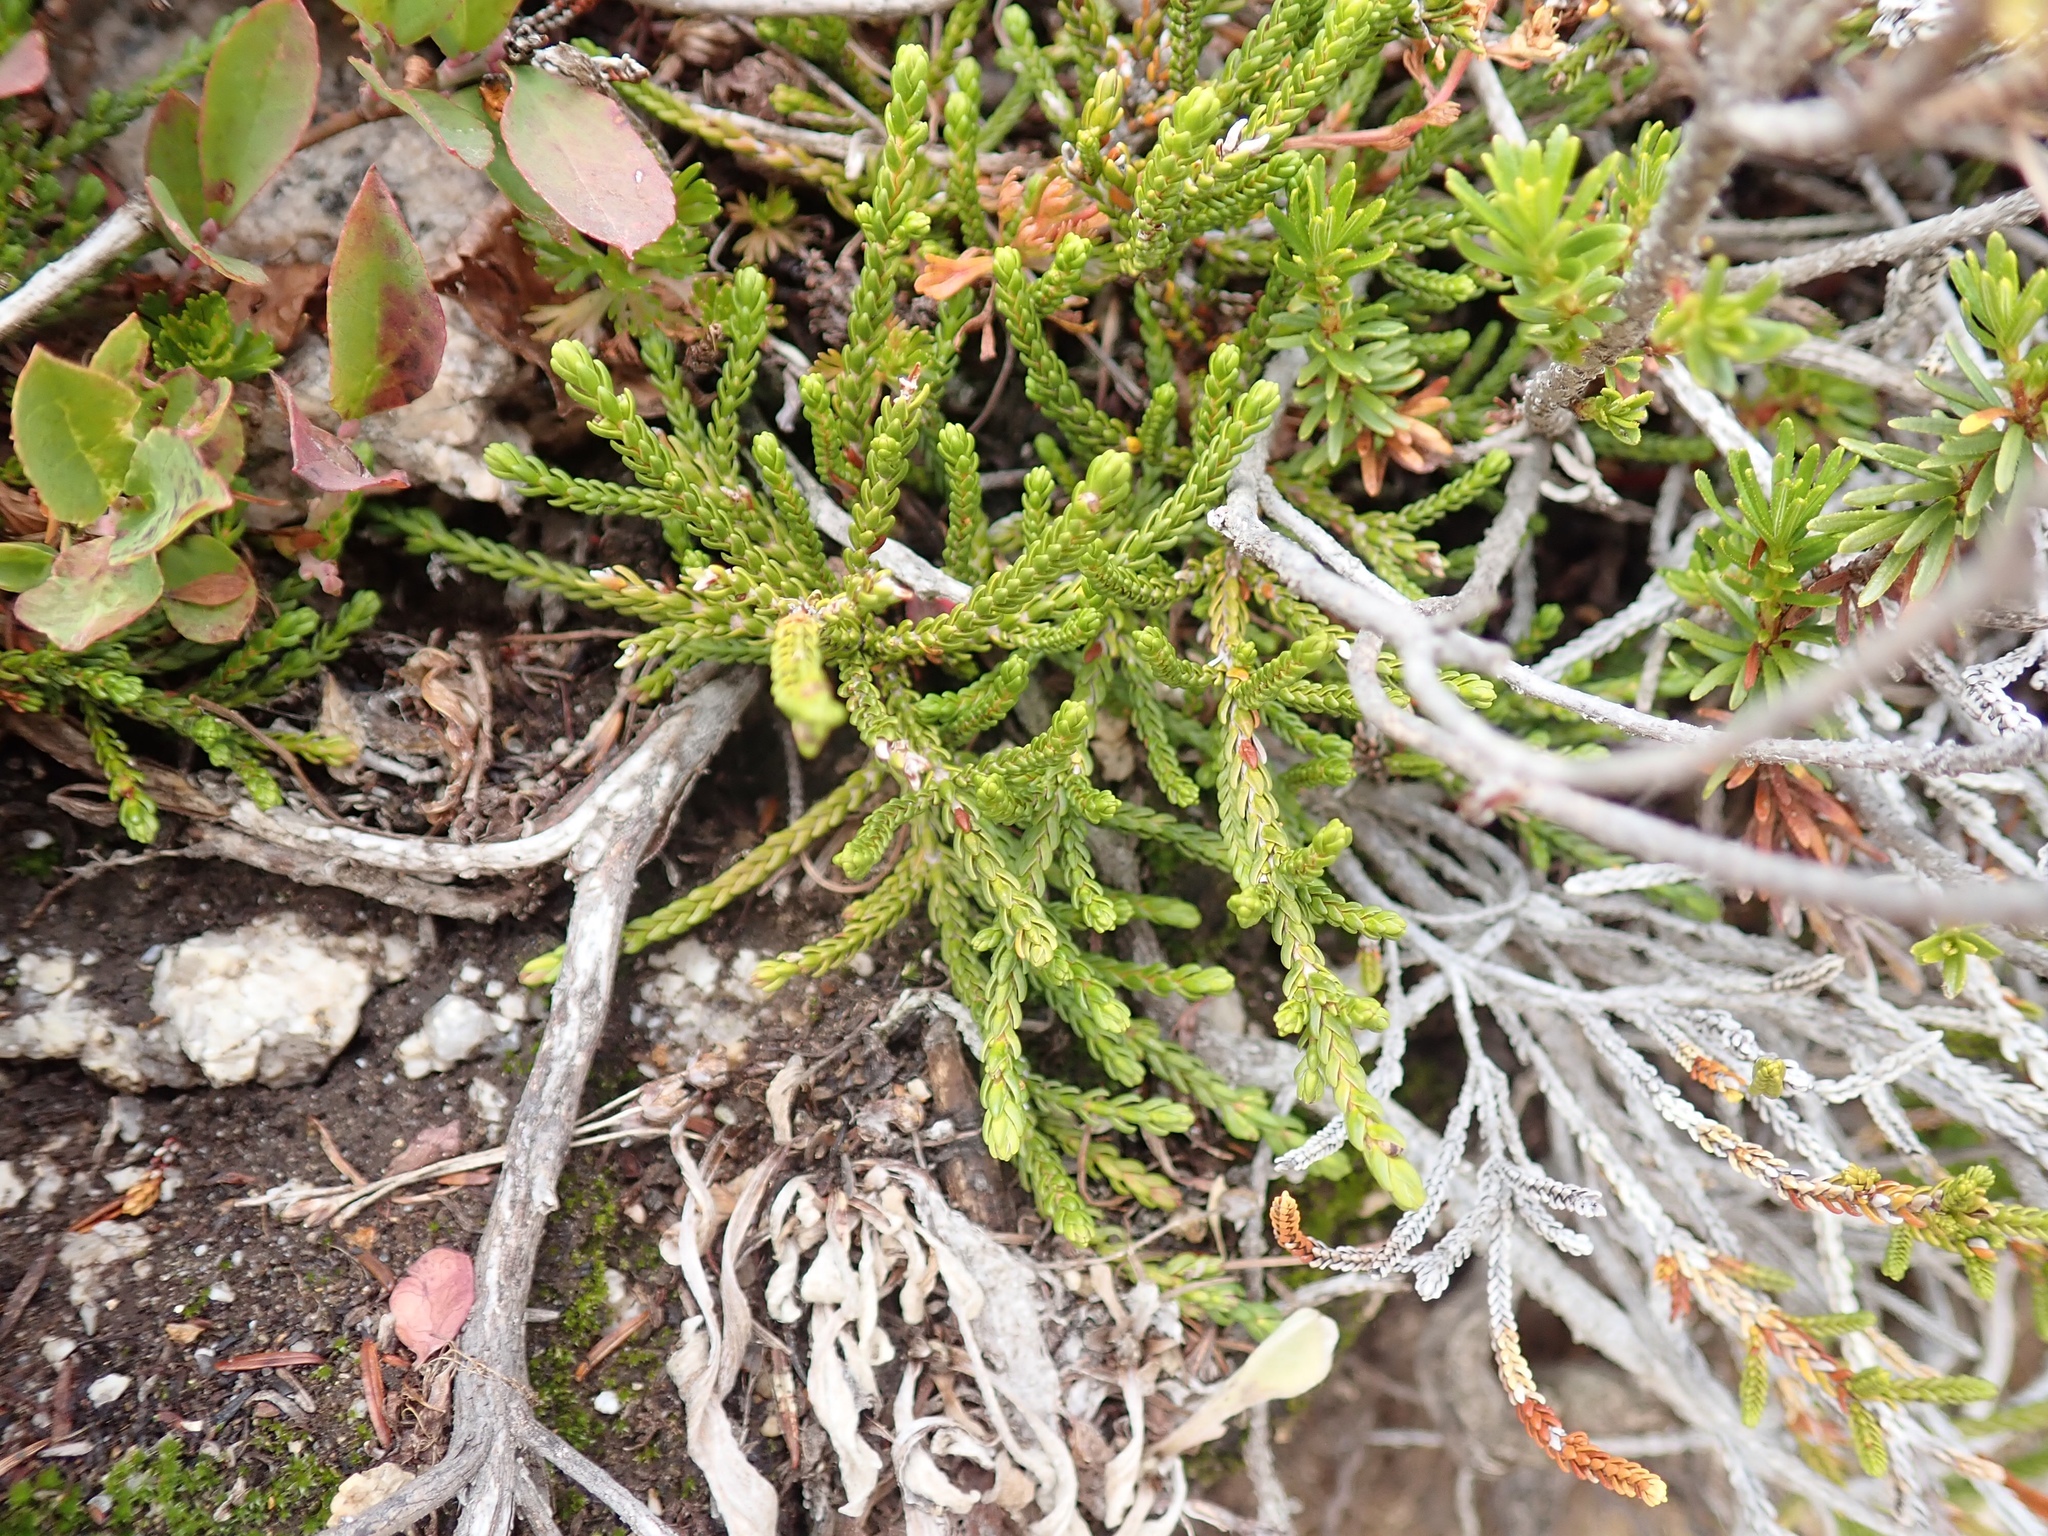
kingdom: Plantae
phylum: Tracheophyta
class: Magnoliopsida
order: Ericales
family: Ericaceae
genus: Cassiope
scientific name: Cassiope mertensiana
